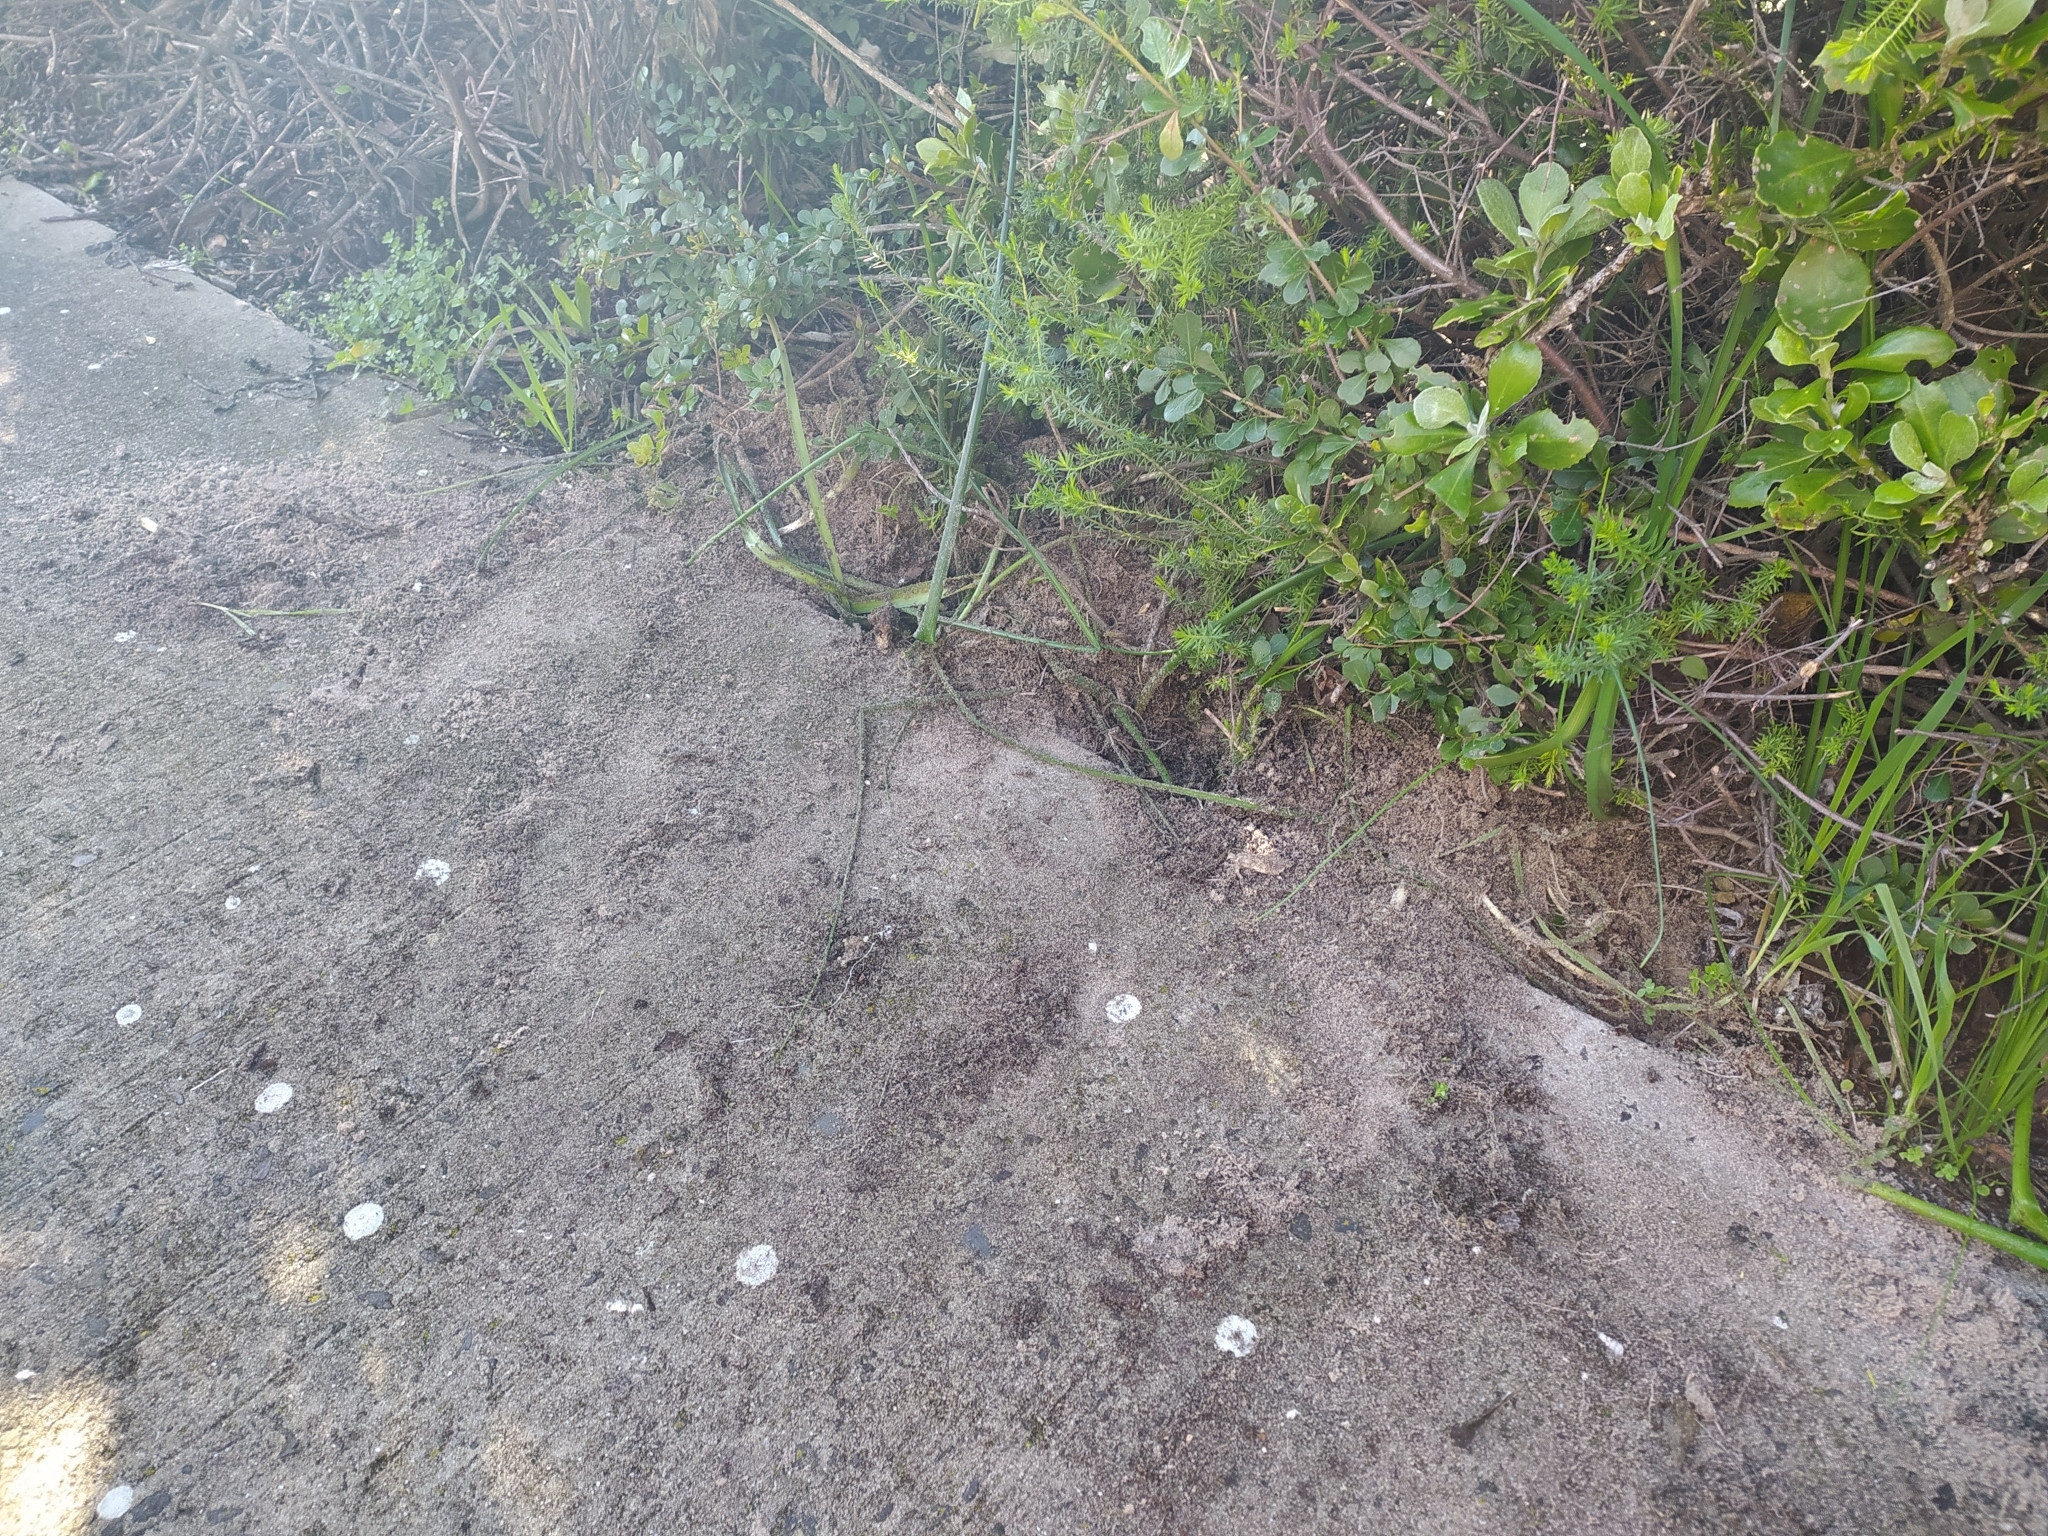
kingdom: Animalia
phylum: Chordata
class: Mammalia
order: Rodentia
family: Hystricidae
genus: Hystrix
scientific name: Hystrix africaeaustralis
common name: Cape porcupine
